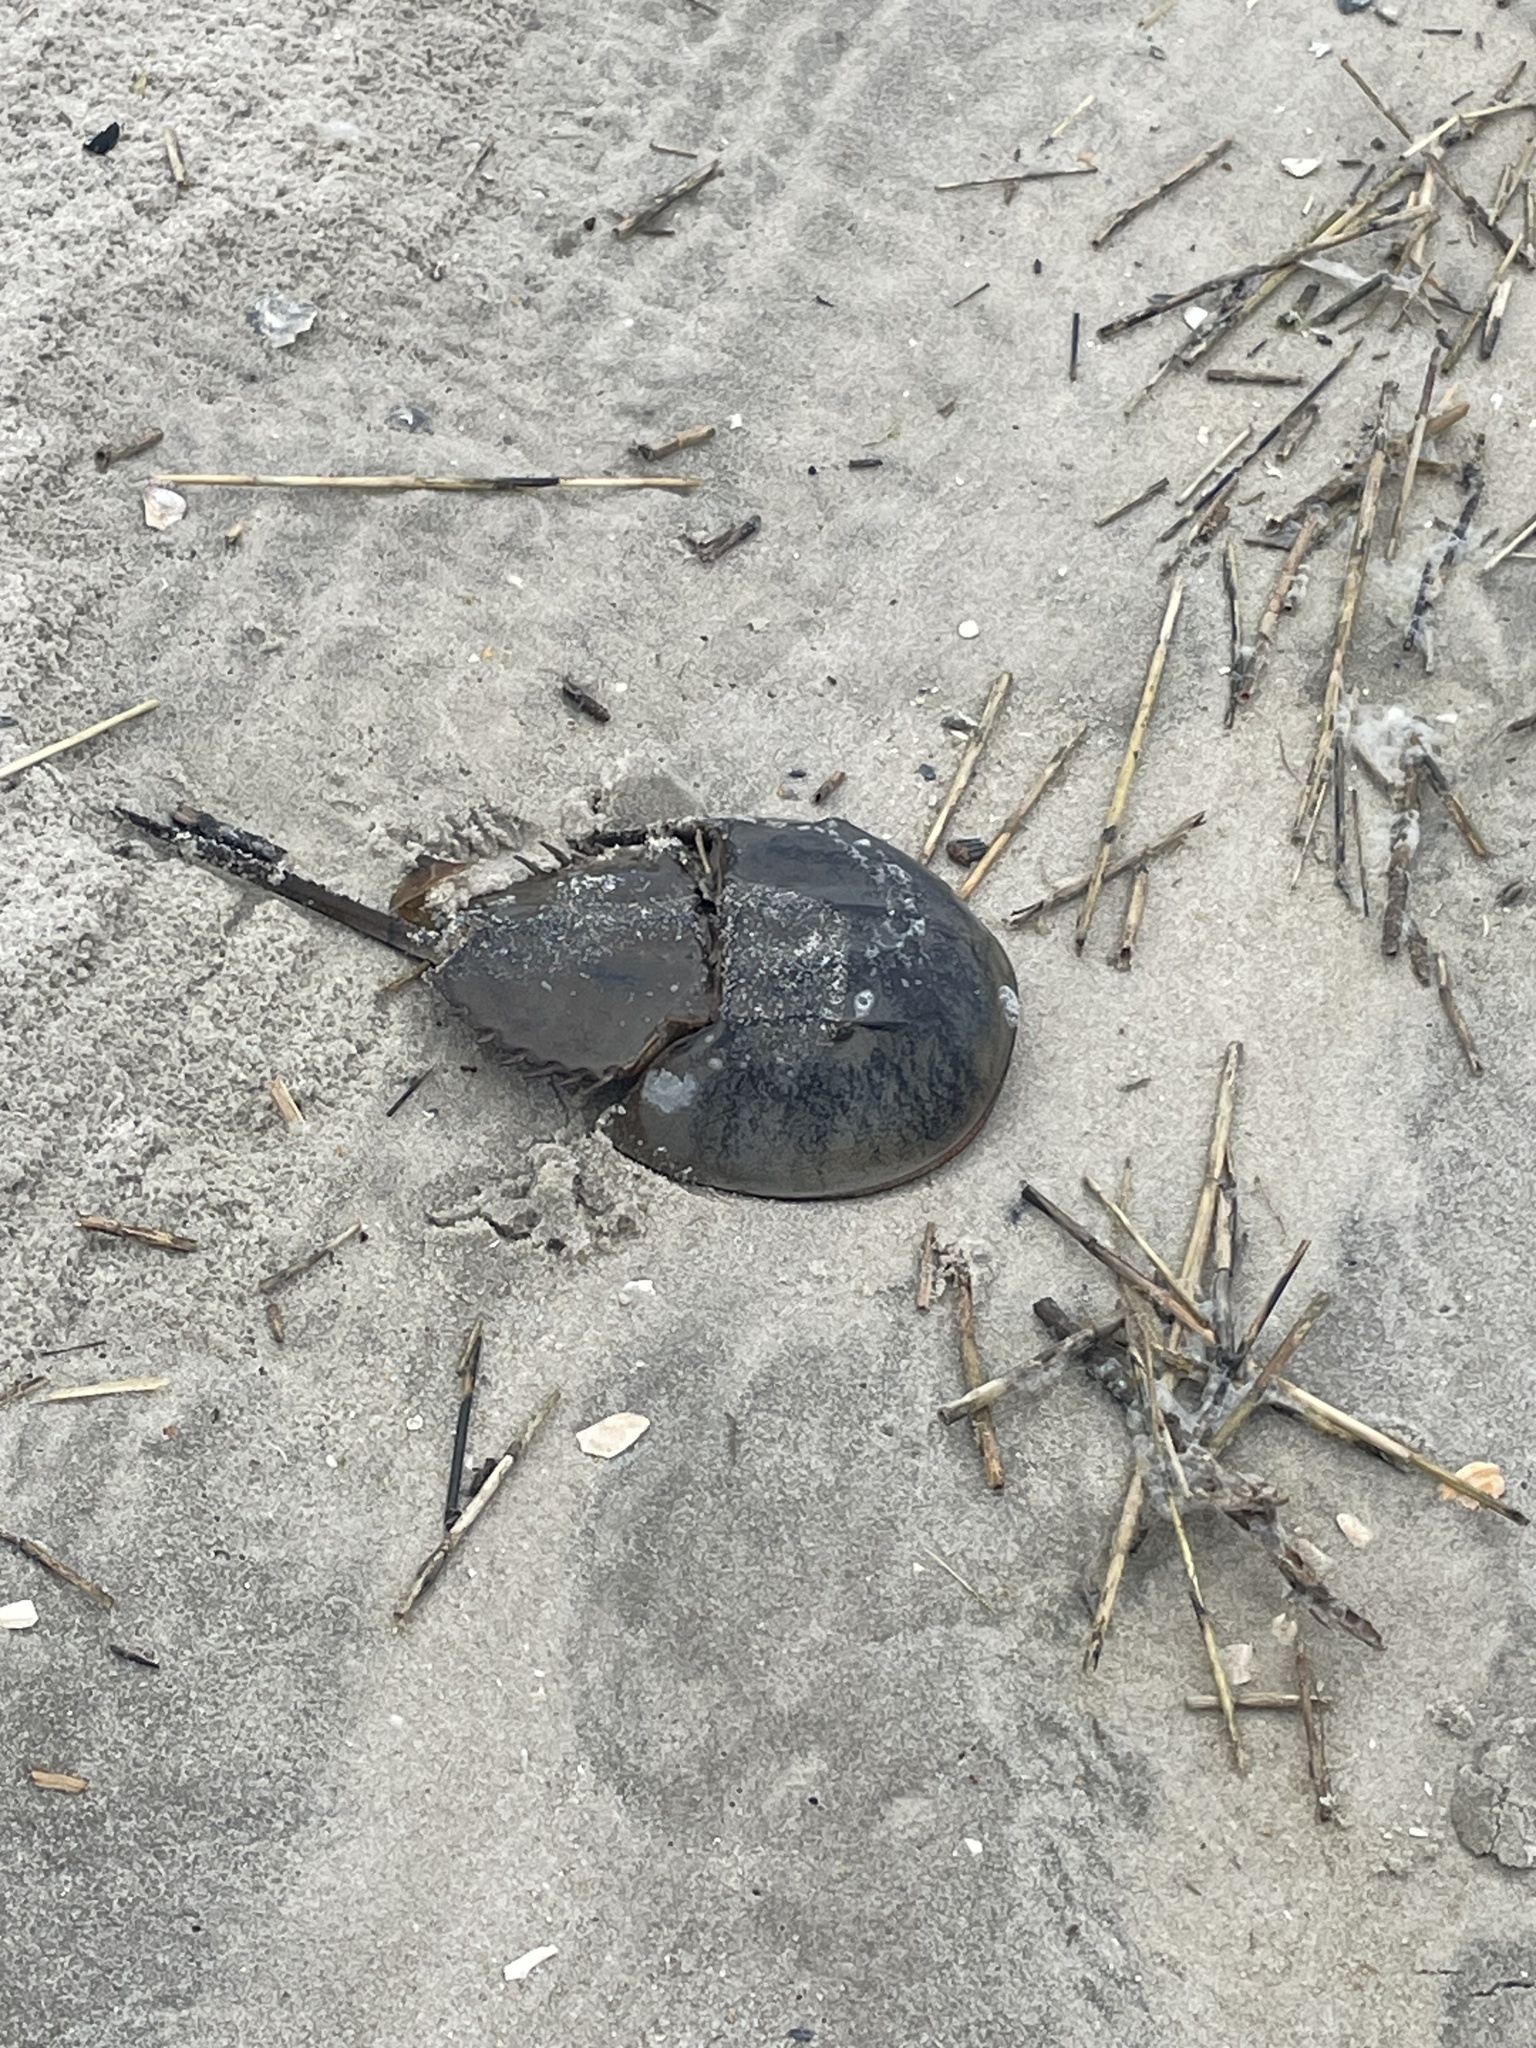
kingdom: Animalia
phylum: Arthropoda
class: Merostomata
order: Xiphosurida
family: Limulidae
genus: Limulus
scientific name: Limulus polyphemus
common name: Horseshoe crab
